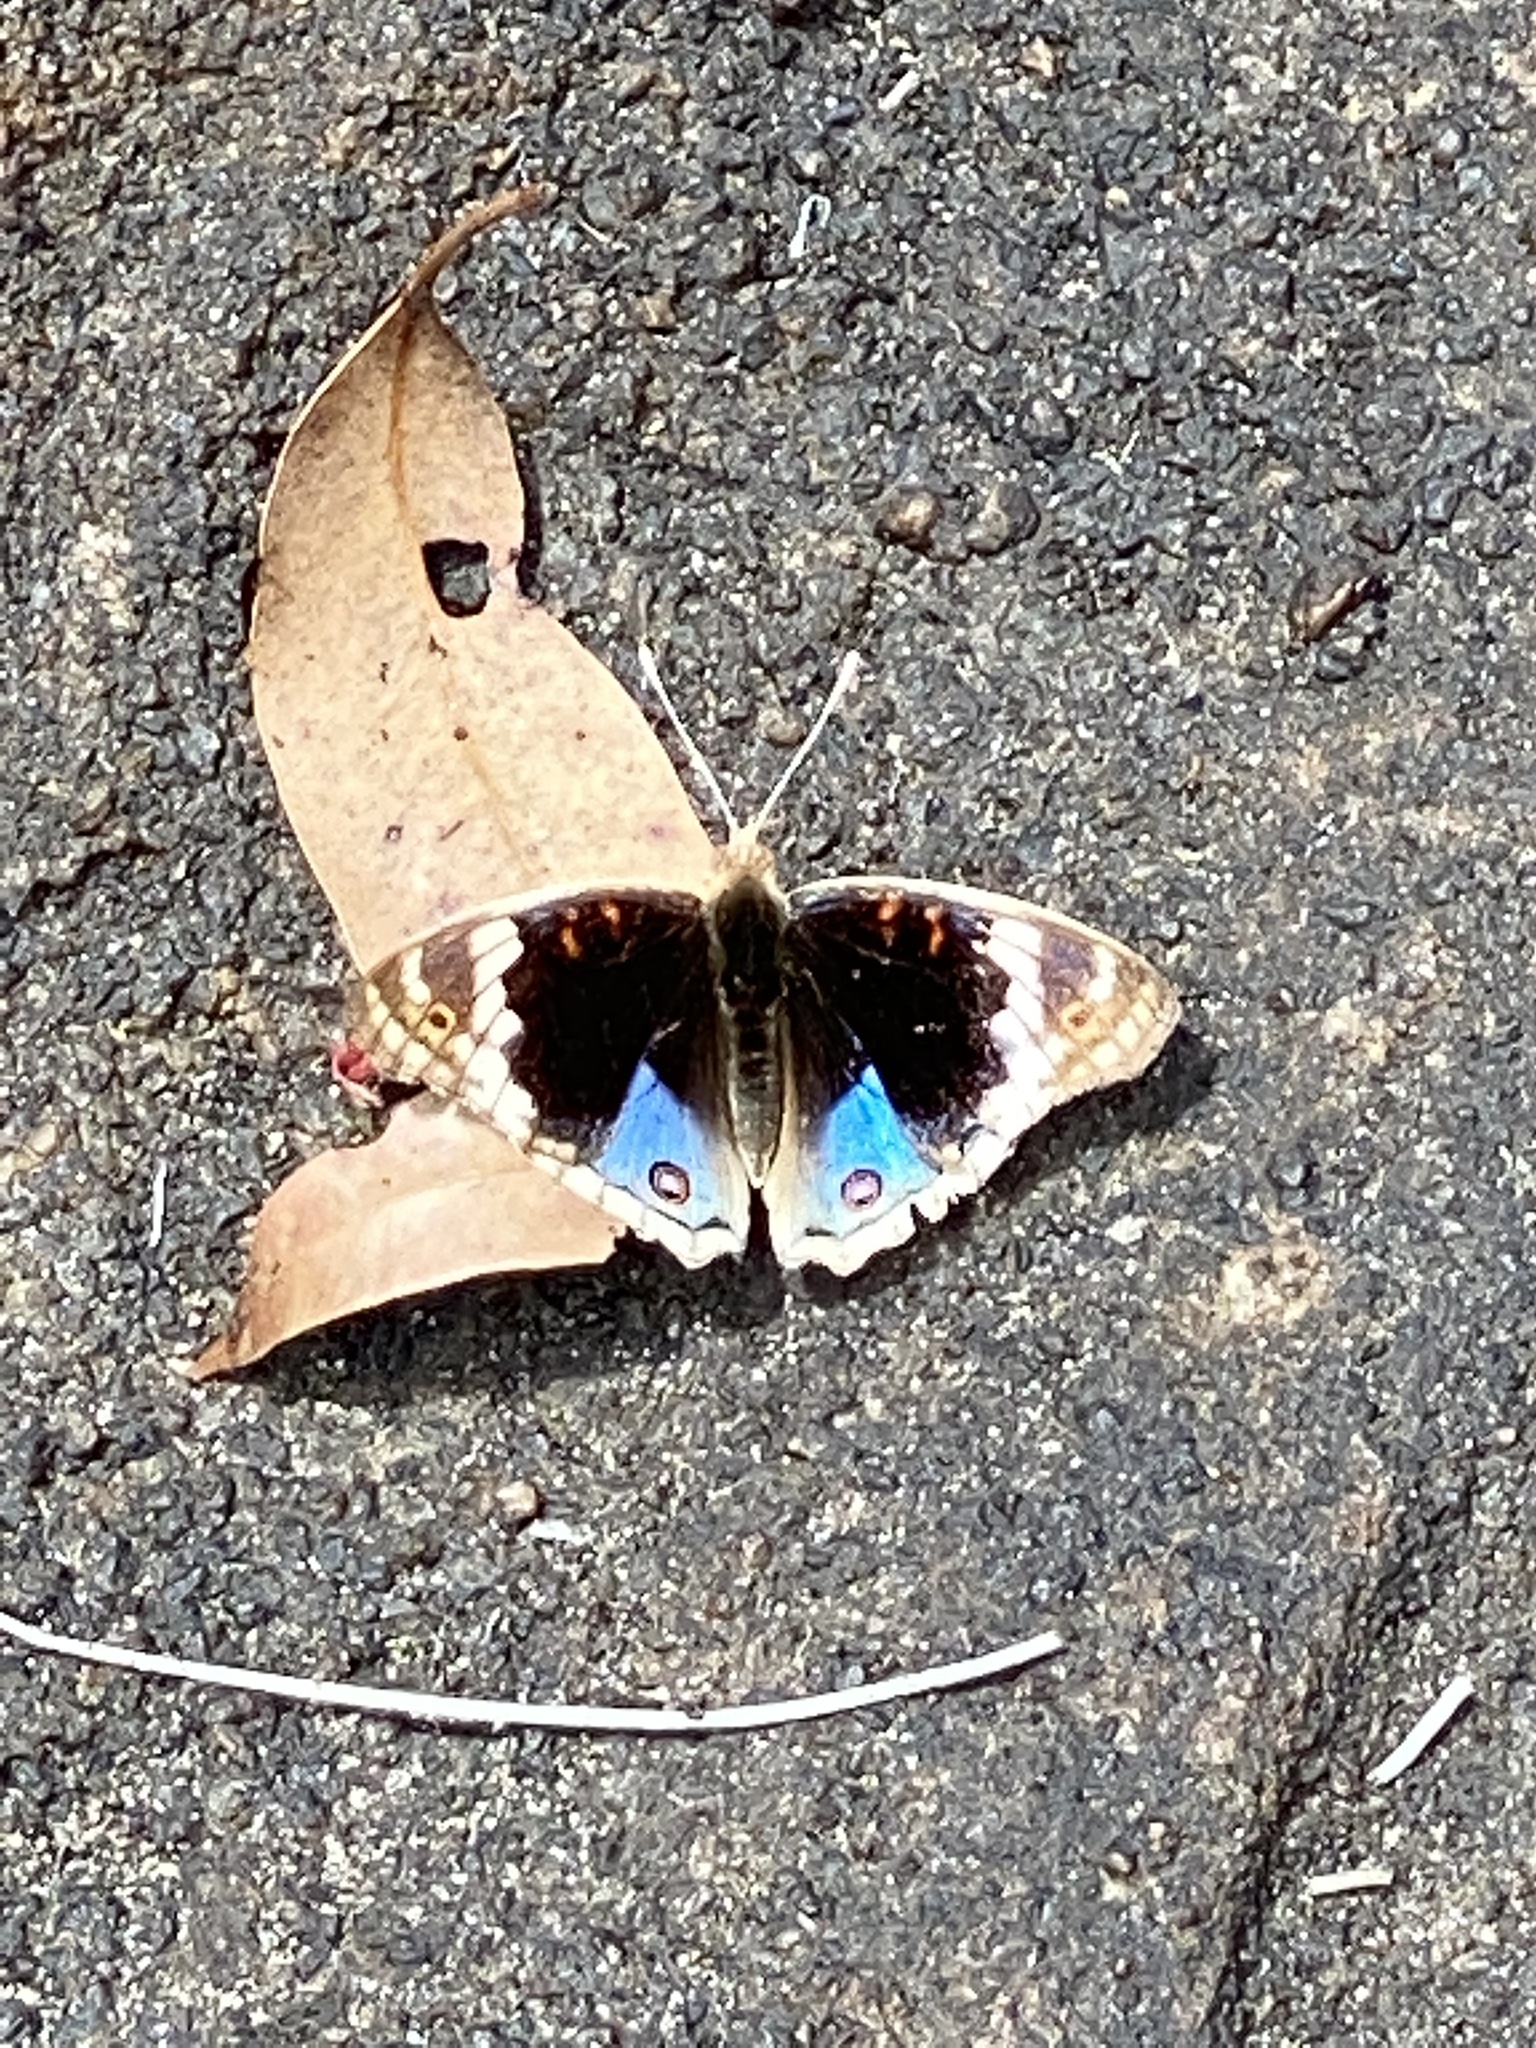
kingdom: Animalia
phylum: Arthropoda
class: Insecta
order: Lepidoptera
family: Nymphalidae
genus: Junonia
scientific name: Junonia orithya
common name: Blue pansy
